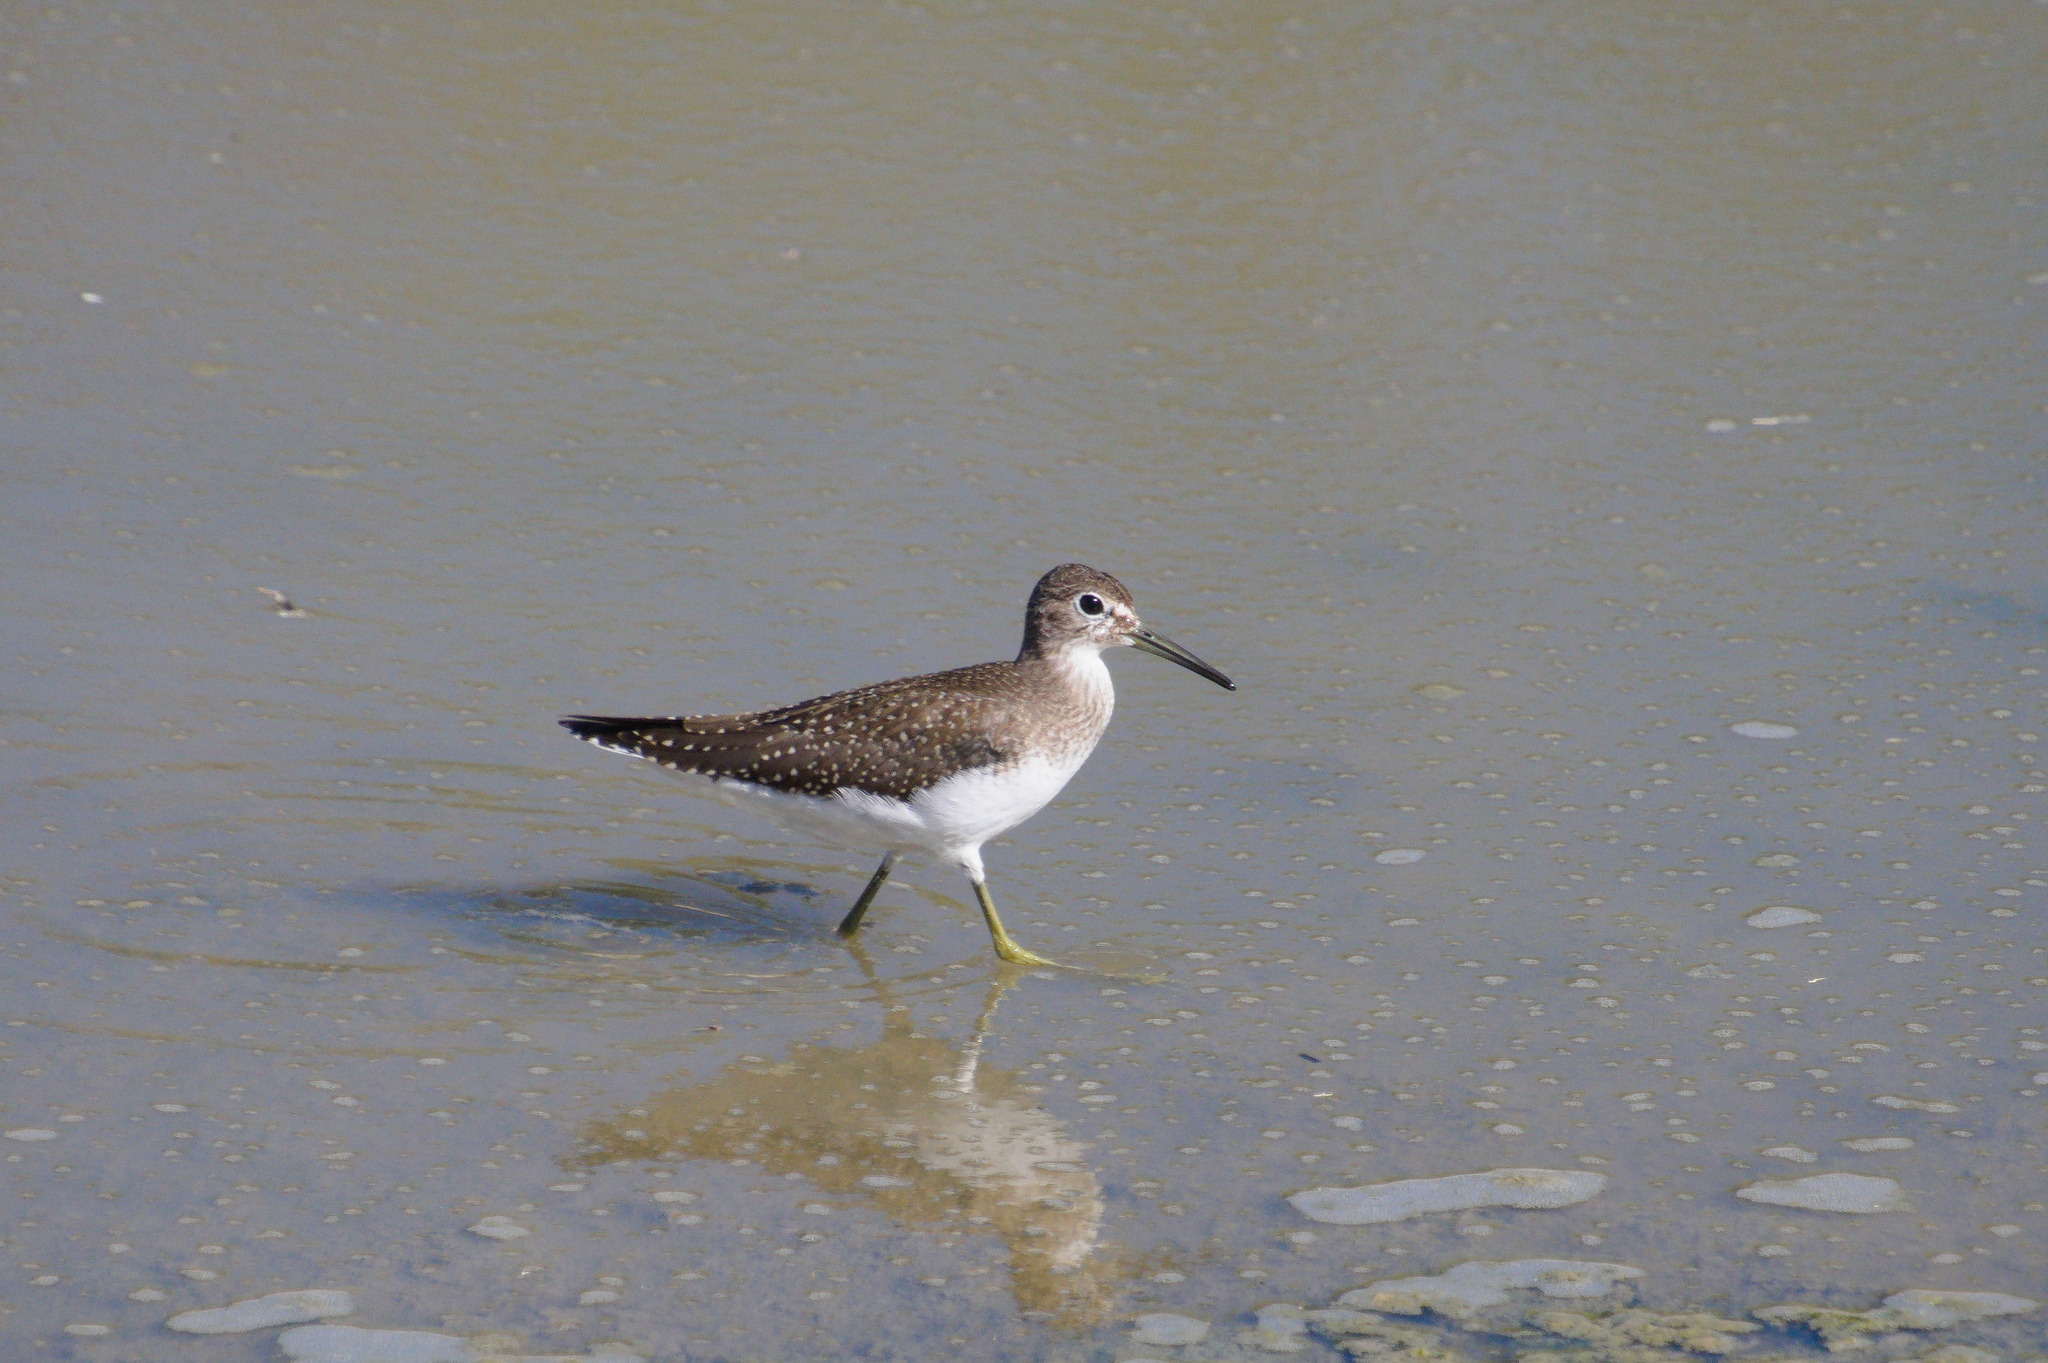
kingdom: Animalia
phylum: Chordata
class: Aves
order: Charadriiformes
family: Scolopacidae
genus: Tringa
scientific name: Tringa solitaria
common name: Solitary sandpiper
